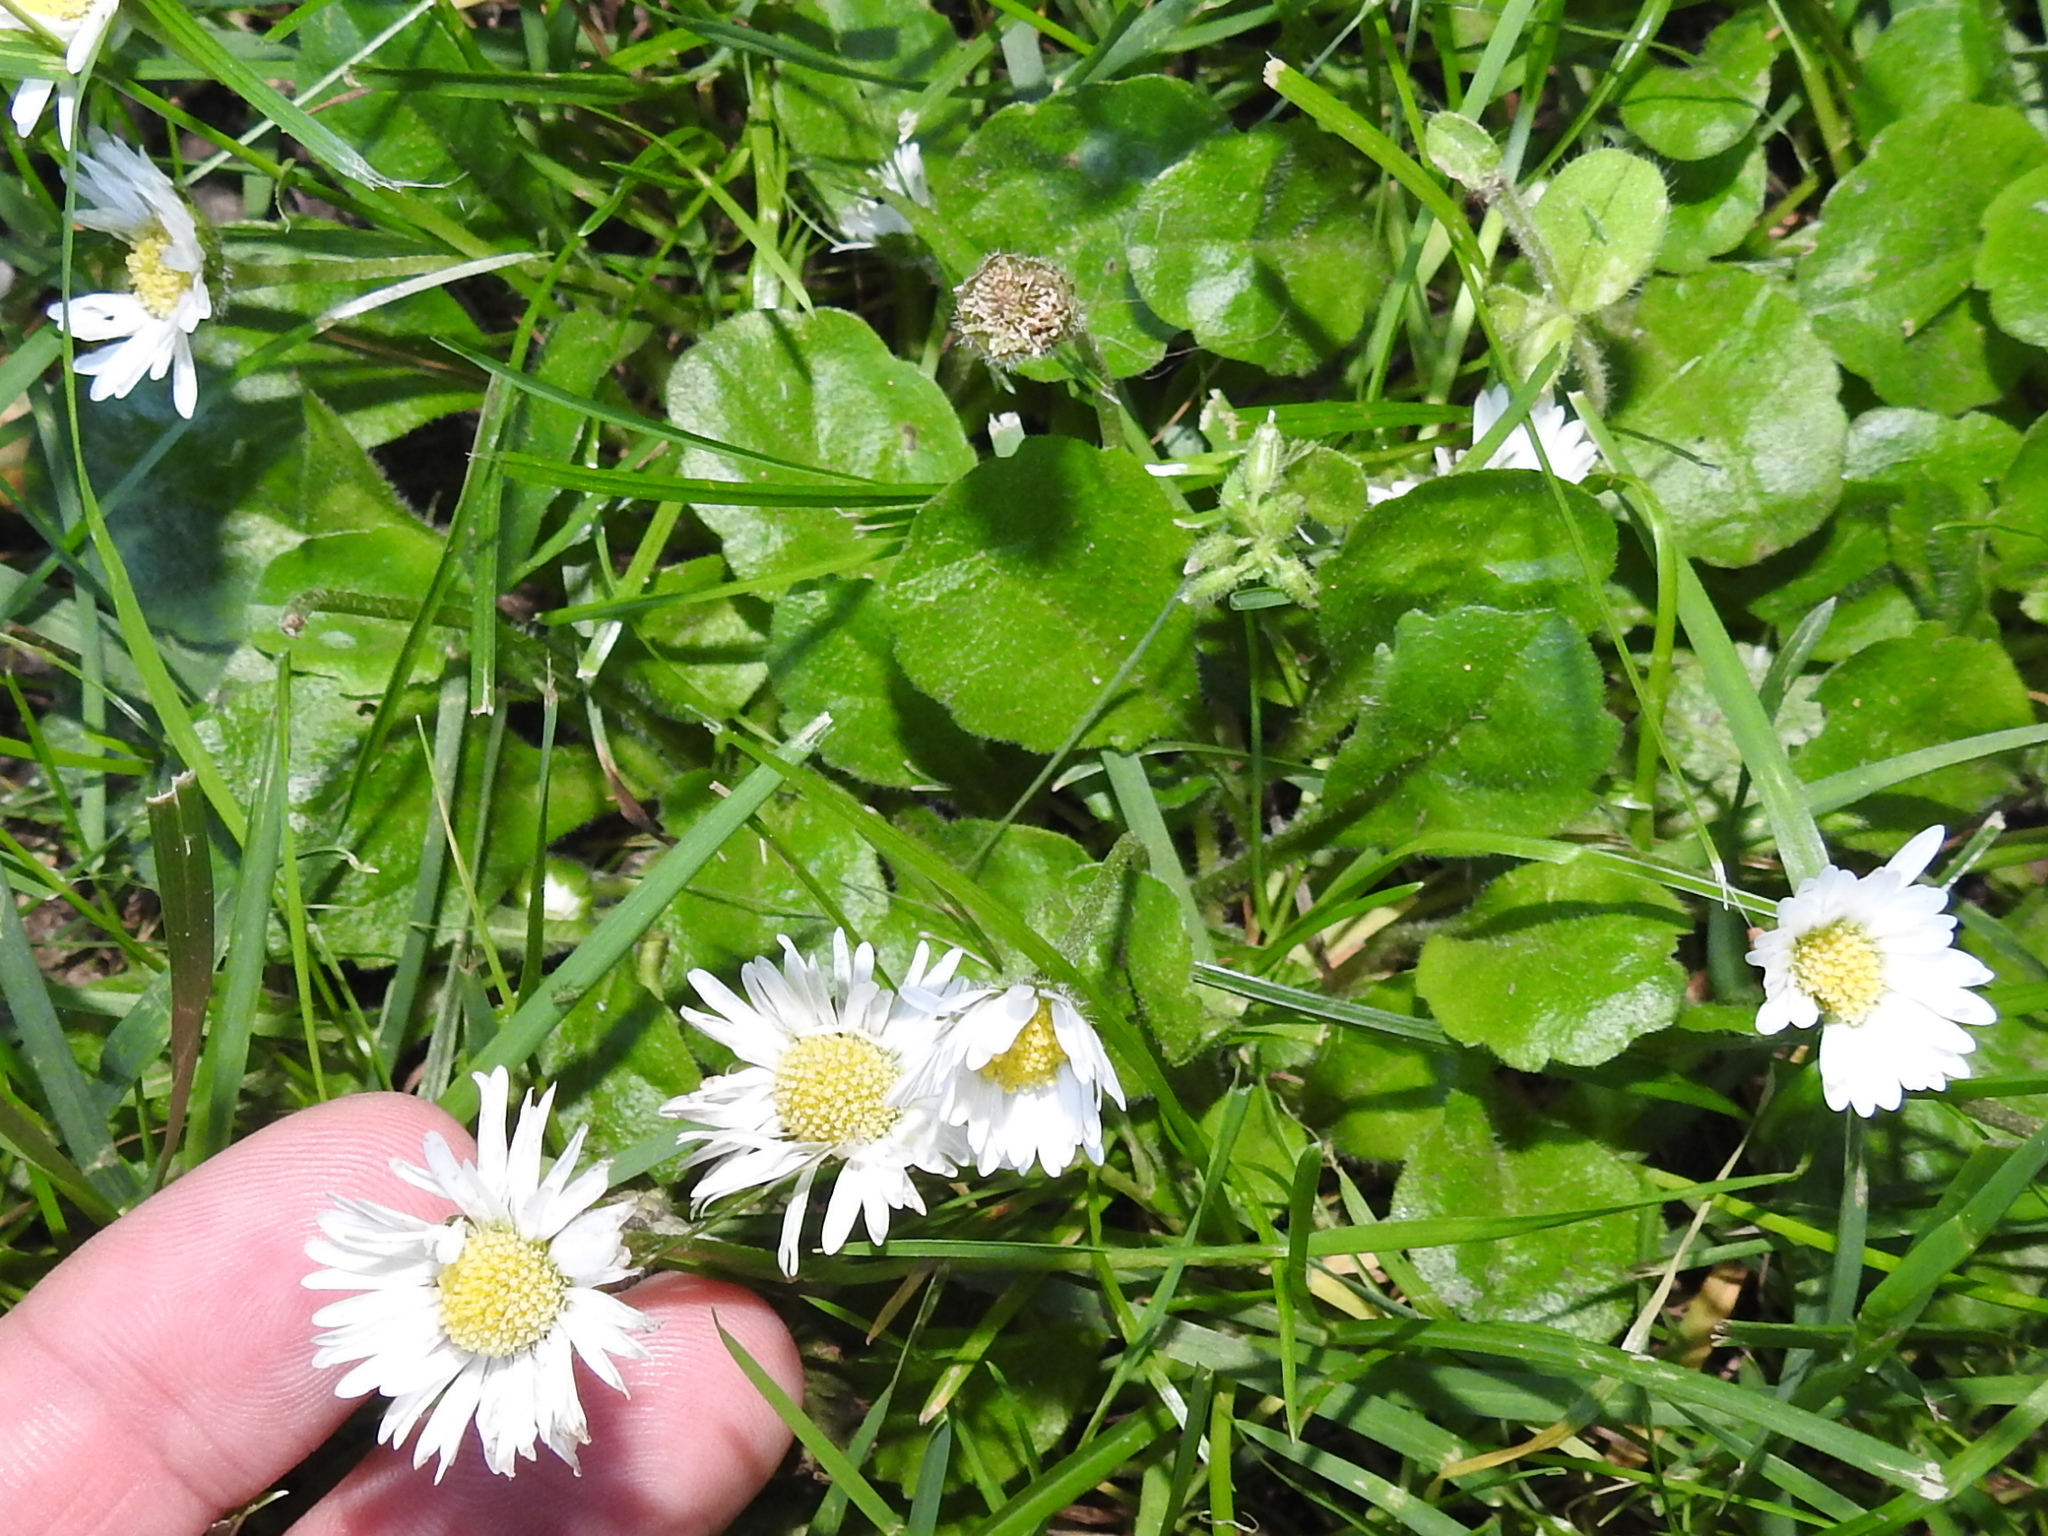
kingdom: Plantae
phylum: Tracheophyta
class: Magnoliopsida
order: Asterales
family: Asteraceae
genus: Bellis
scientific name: Bellis perennis
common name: Lawndaisy
